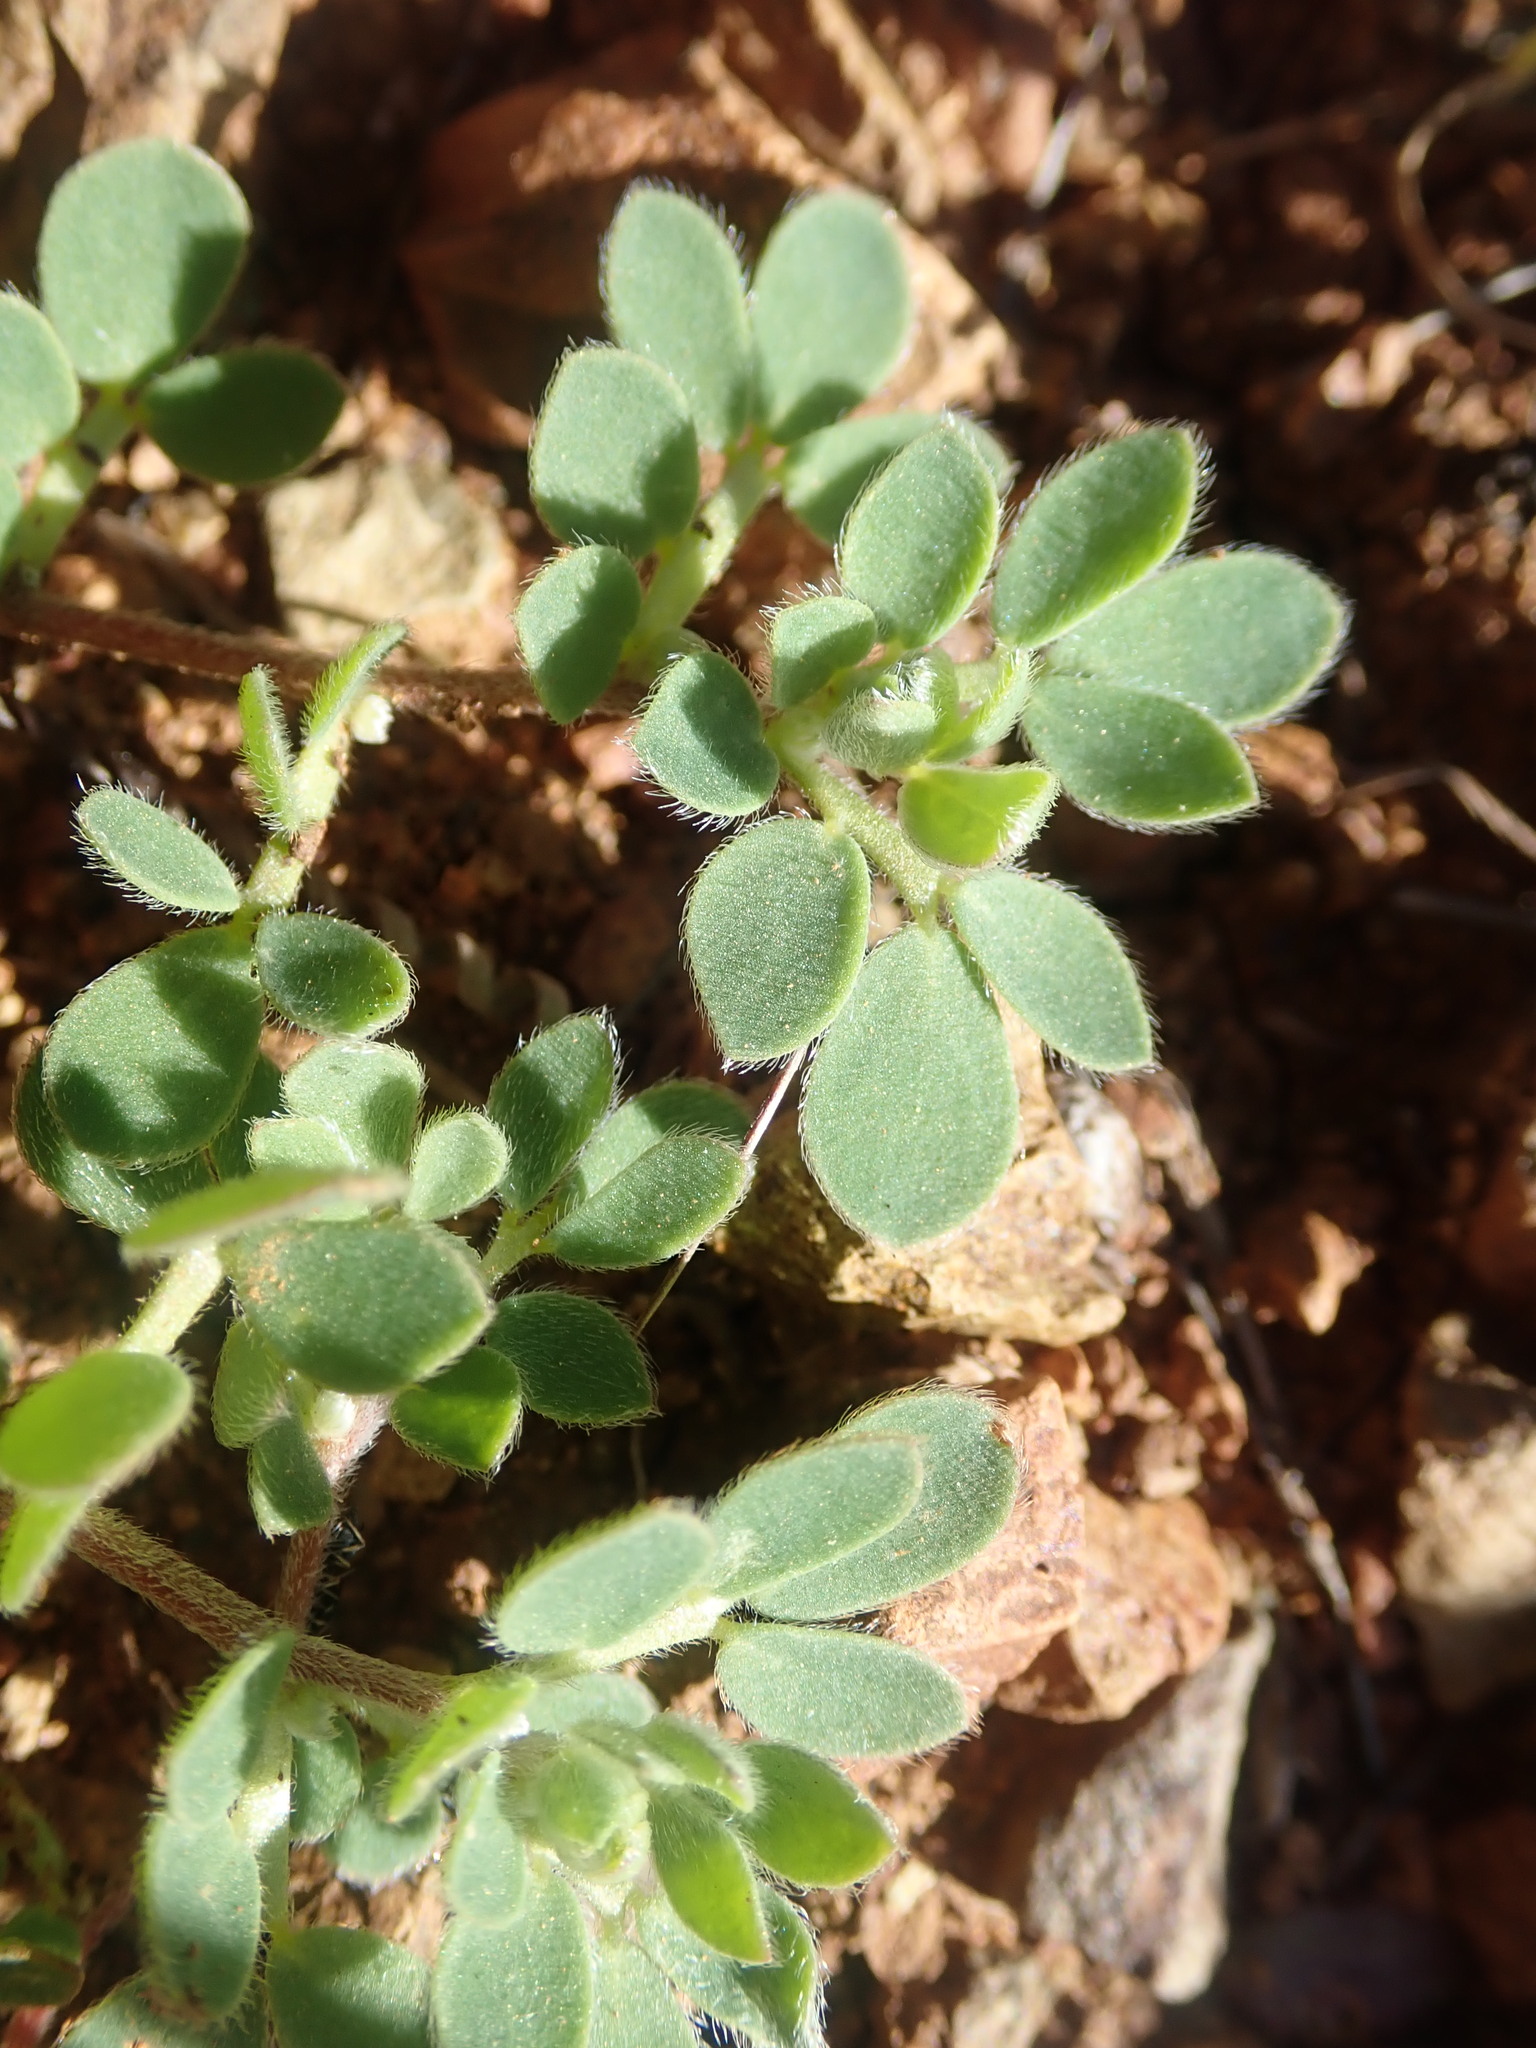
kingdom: Plantae
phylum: Tracheophyta
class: Magnoliopsida
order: Fabales
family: Fabaceae
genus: Acmispon
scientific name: Acmispon wrangelianus
